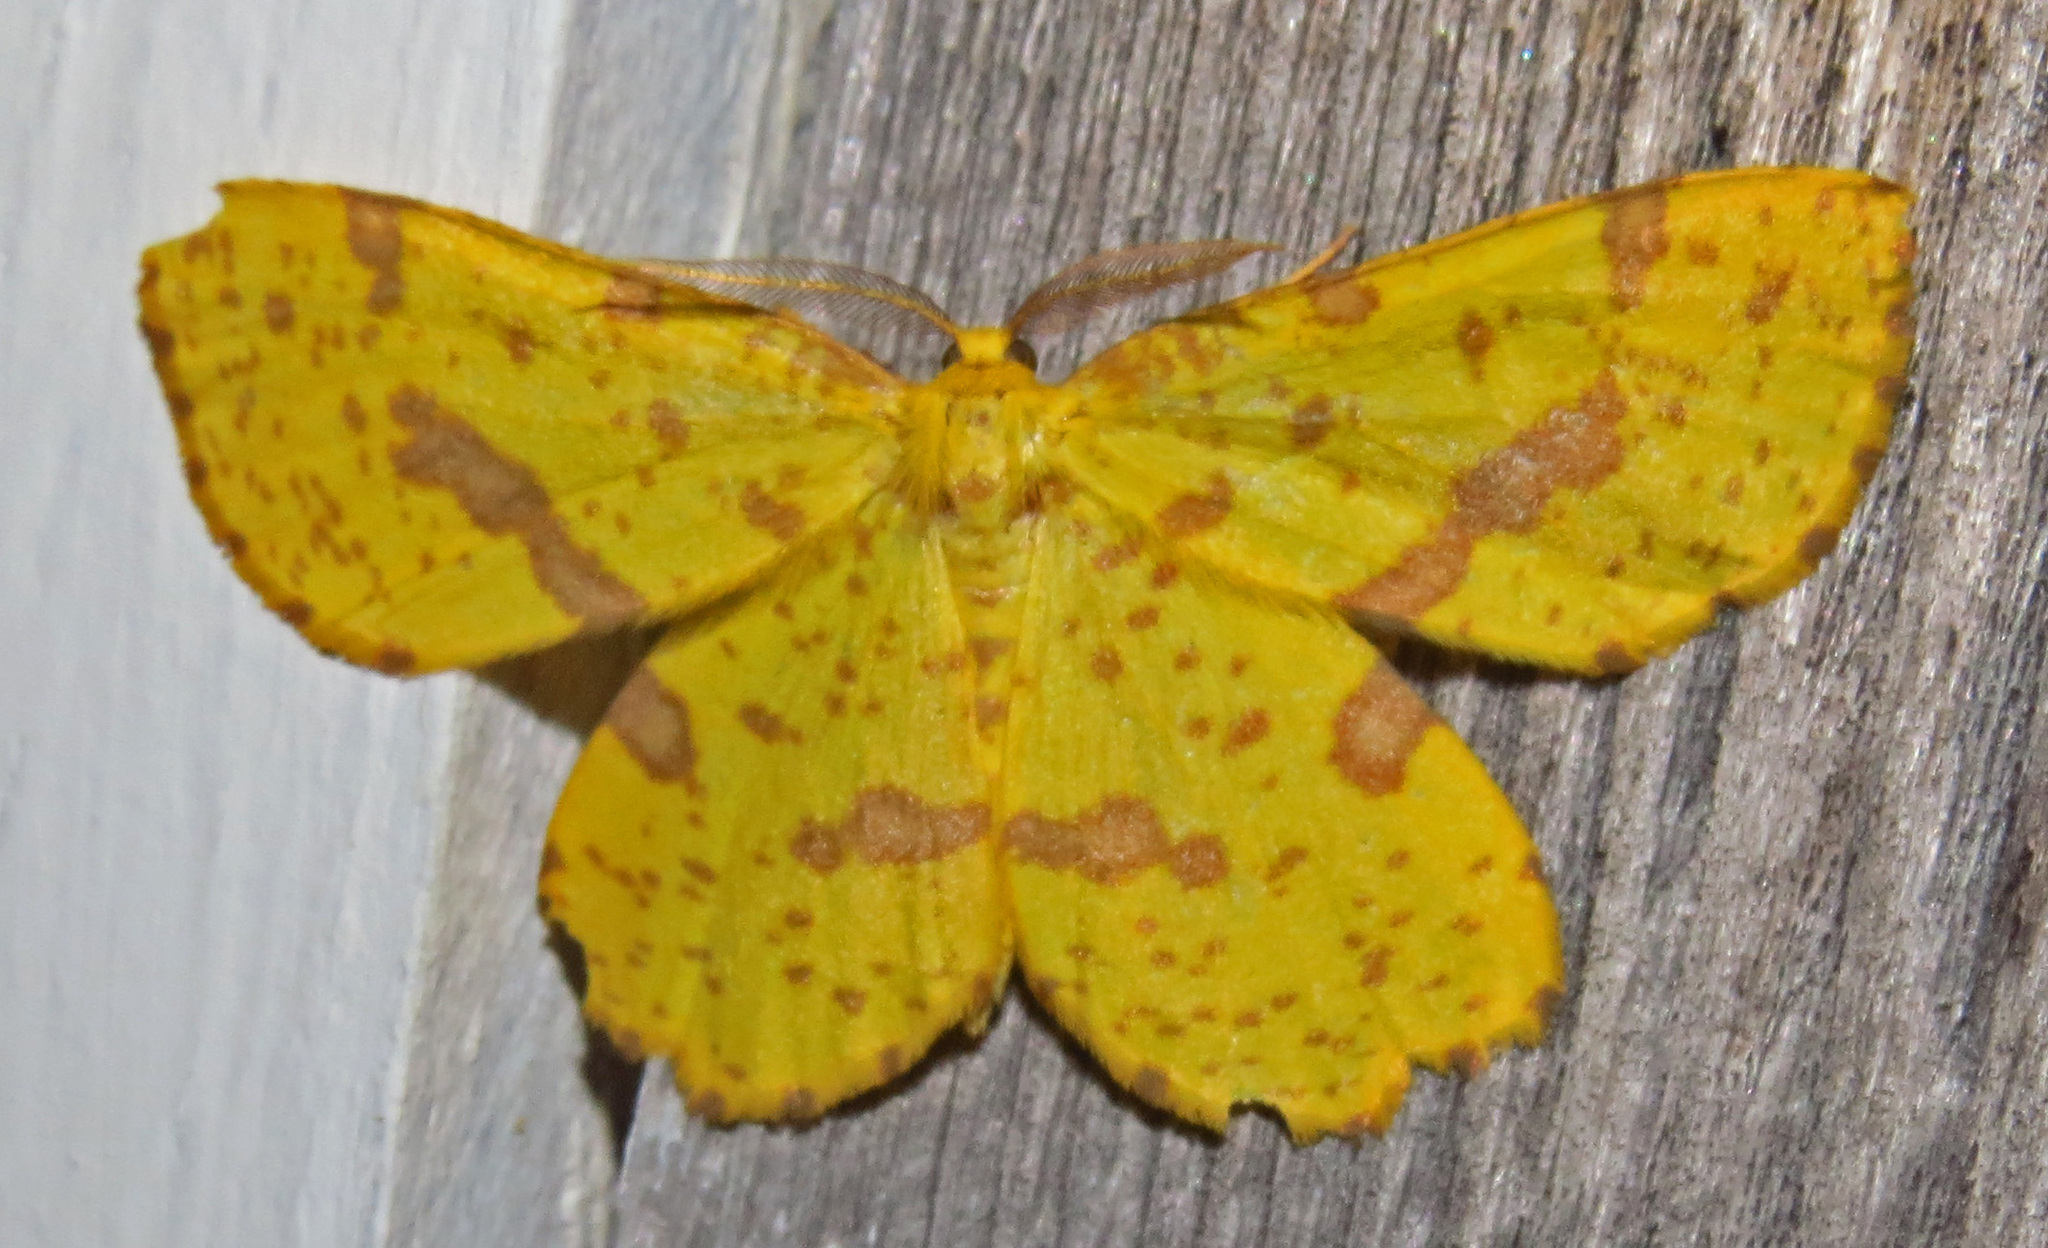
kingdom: Animalia
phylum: Arthropoda
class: Insecta
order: Lepidoptera
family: Geometridae
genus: Xanthotype
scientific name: Xanthotype
